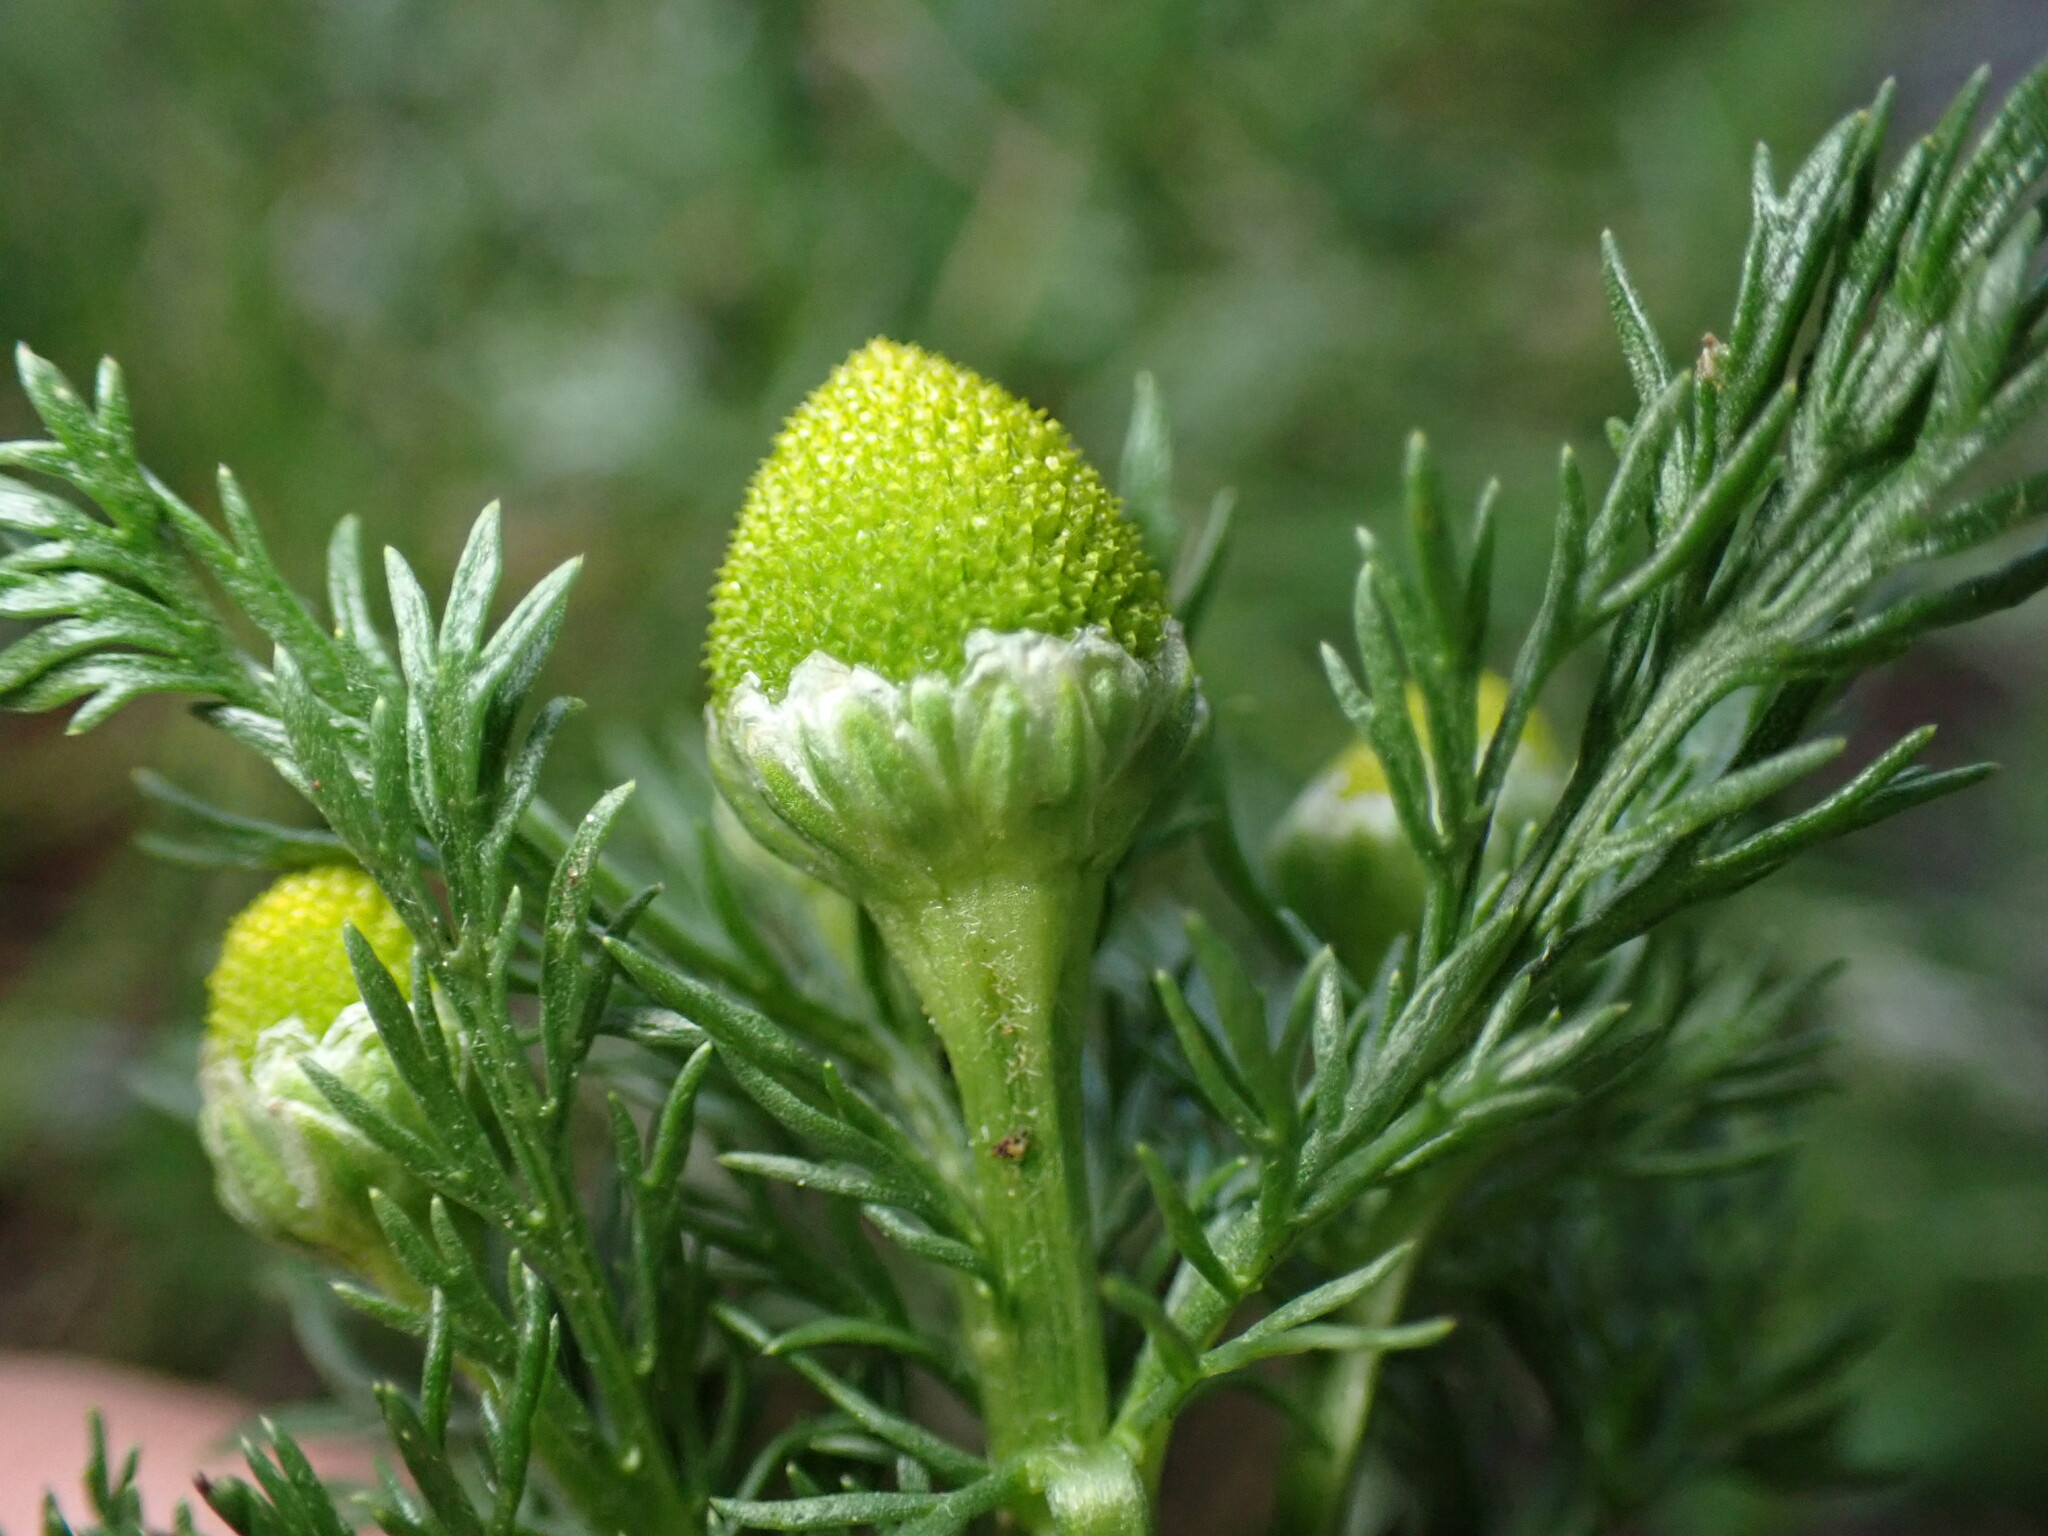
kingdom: Plantae
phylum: Tracheophyta
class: Magnoliopsida
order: Asterales
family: Asteraceae
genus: Matricaria
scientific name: Matricaria discoidea
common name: Disc mayweed
